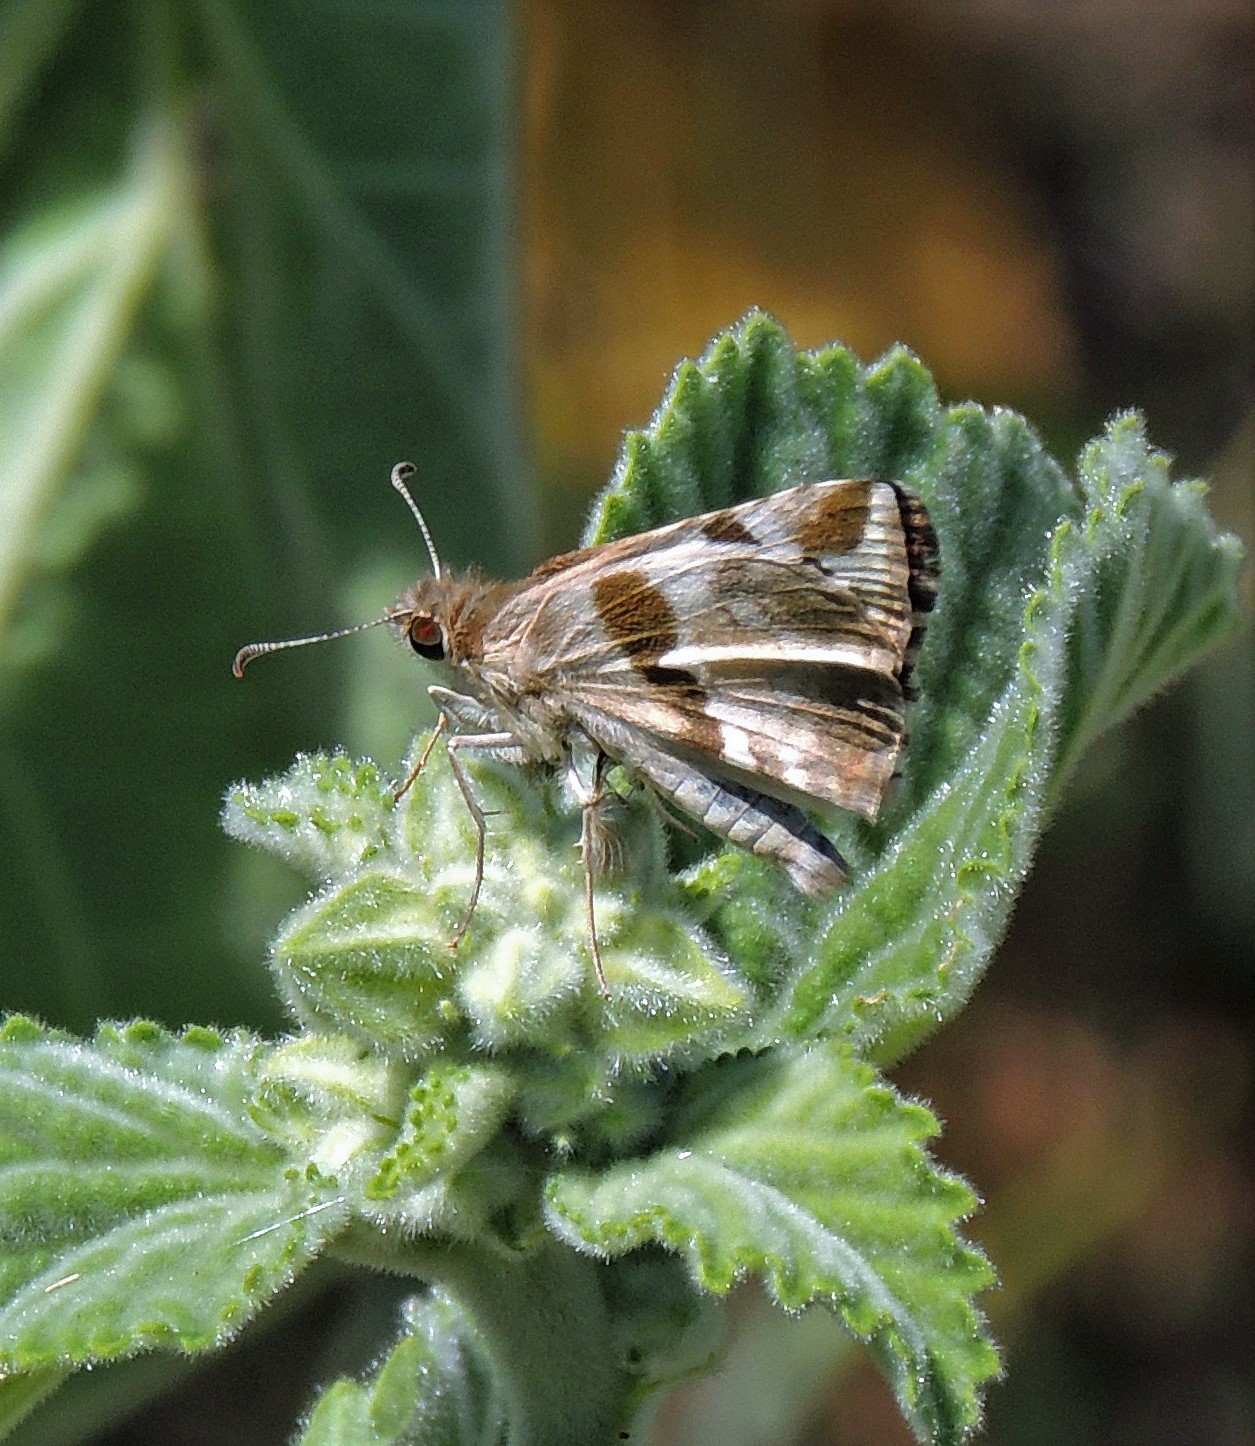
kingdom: Animalia
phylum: Arthropoda
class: Insecta
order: Lepidoptera
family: Hesperiidae
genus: Heliopyrgus
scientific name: Heliopyrgus domicella
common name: Erichson's white skipper
